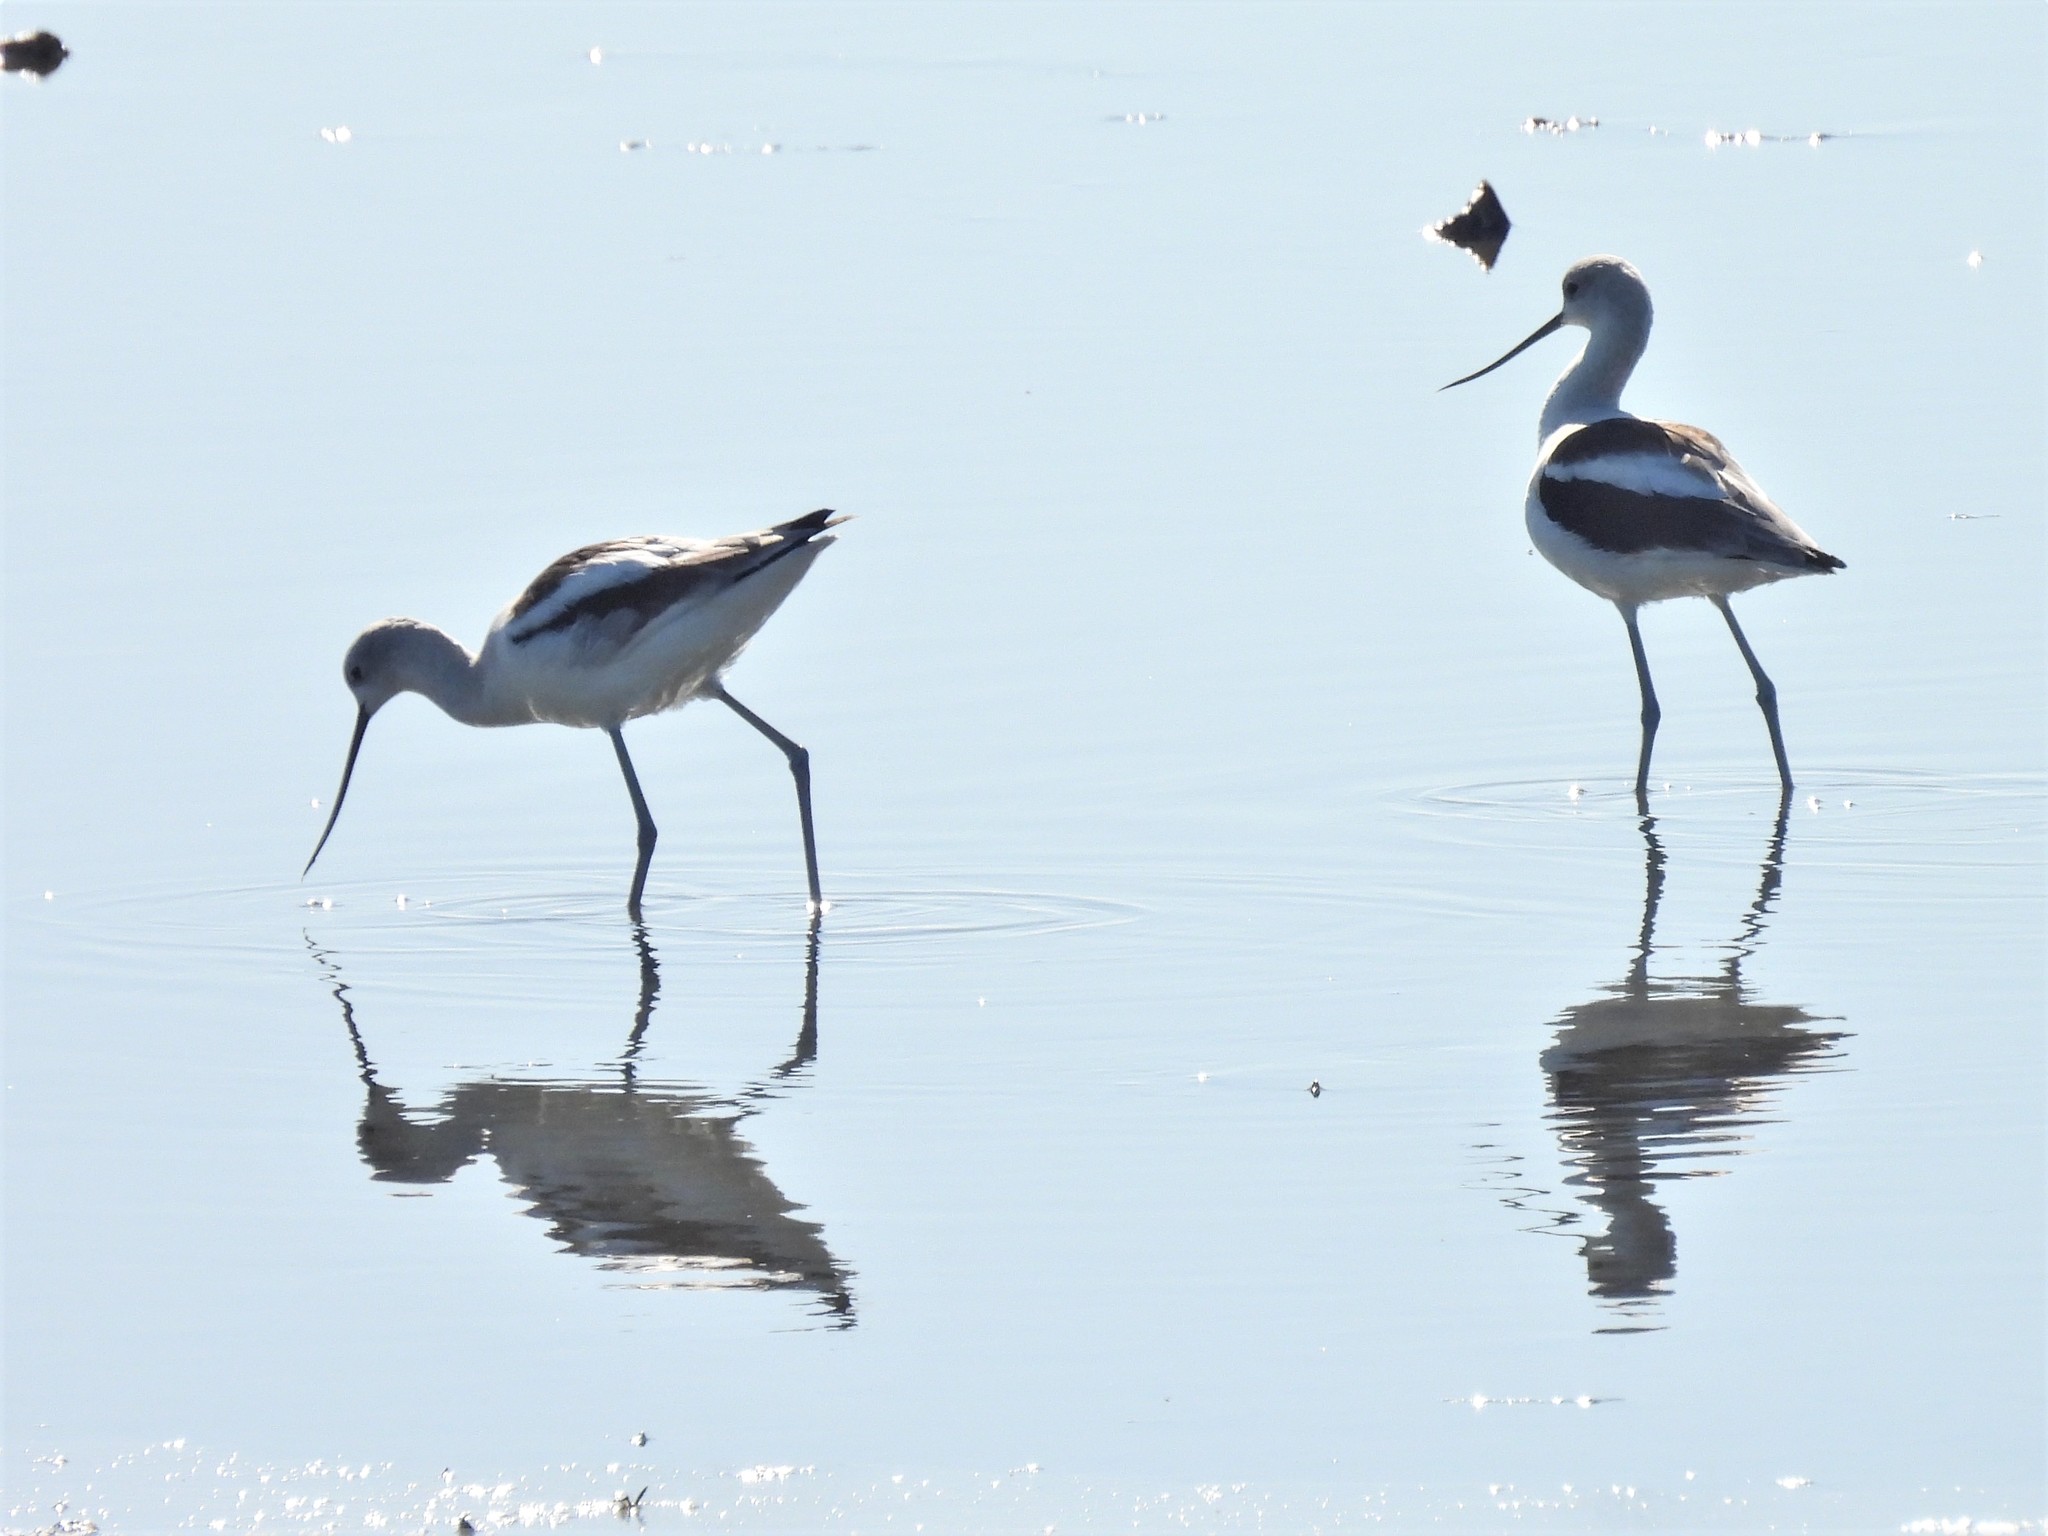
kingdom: Animalia
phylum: Chordata
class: Aves
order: Charadriiformes
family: Recurvirostridae
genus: Recurvirostra
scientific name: Recurvirostra americana
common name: American avocet
